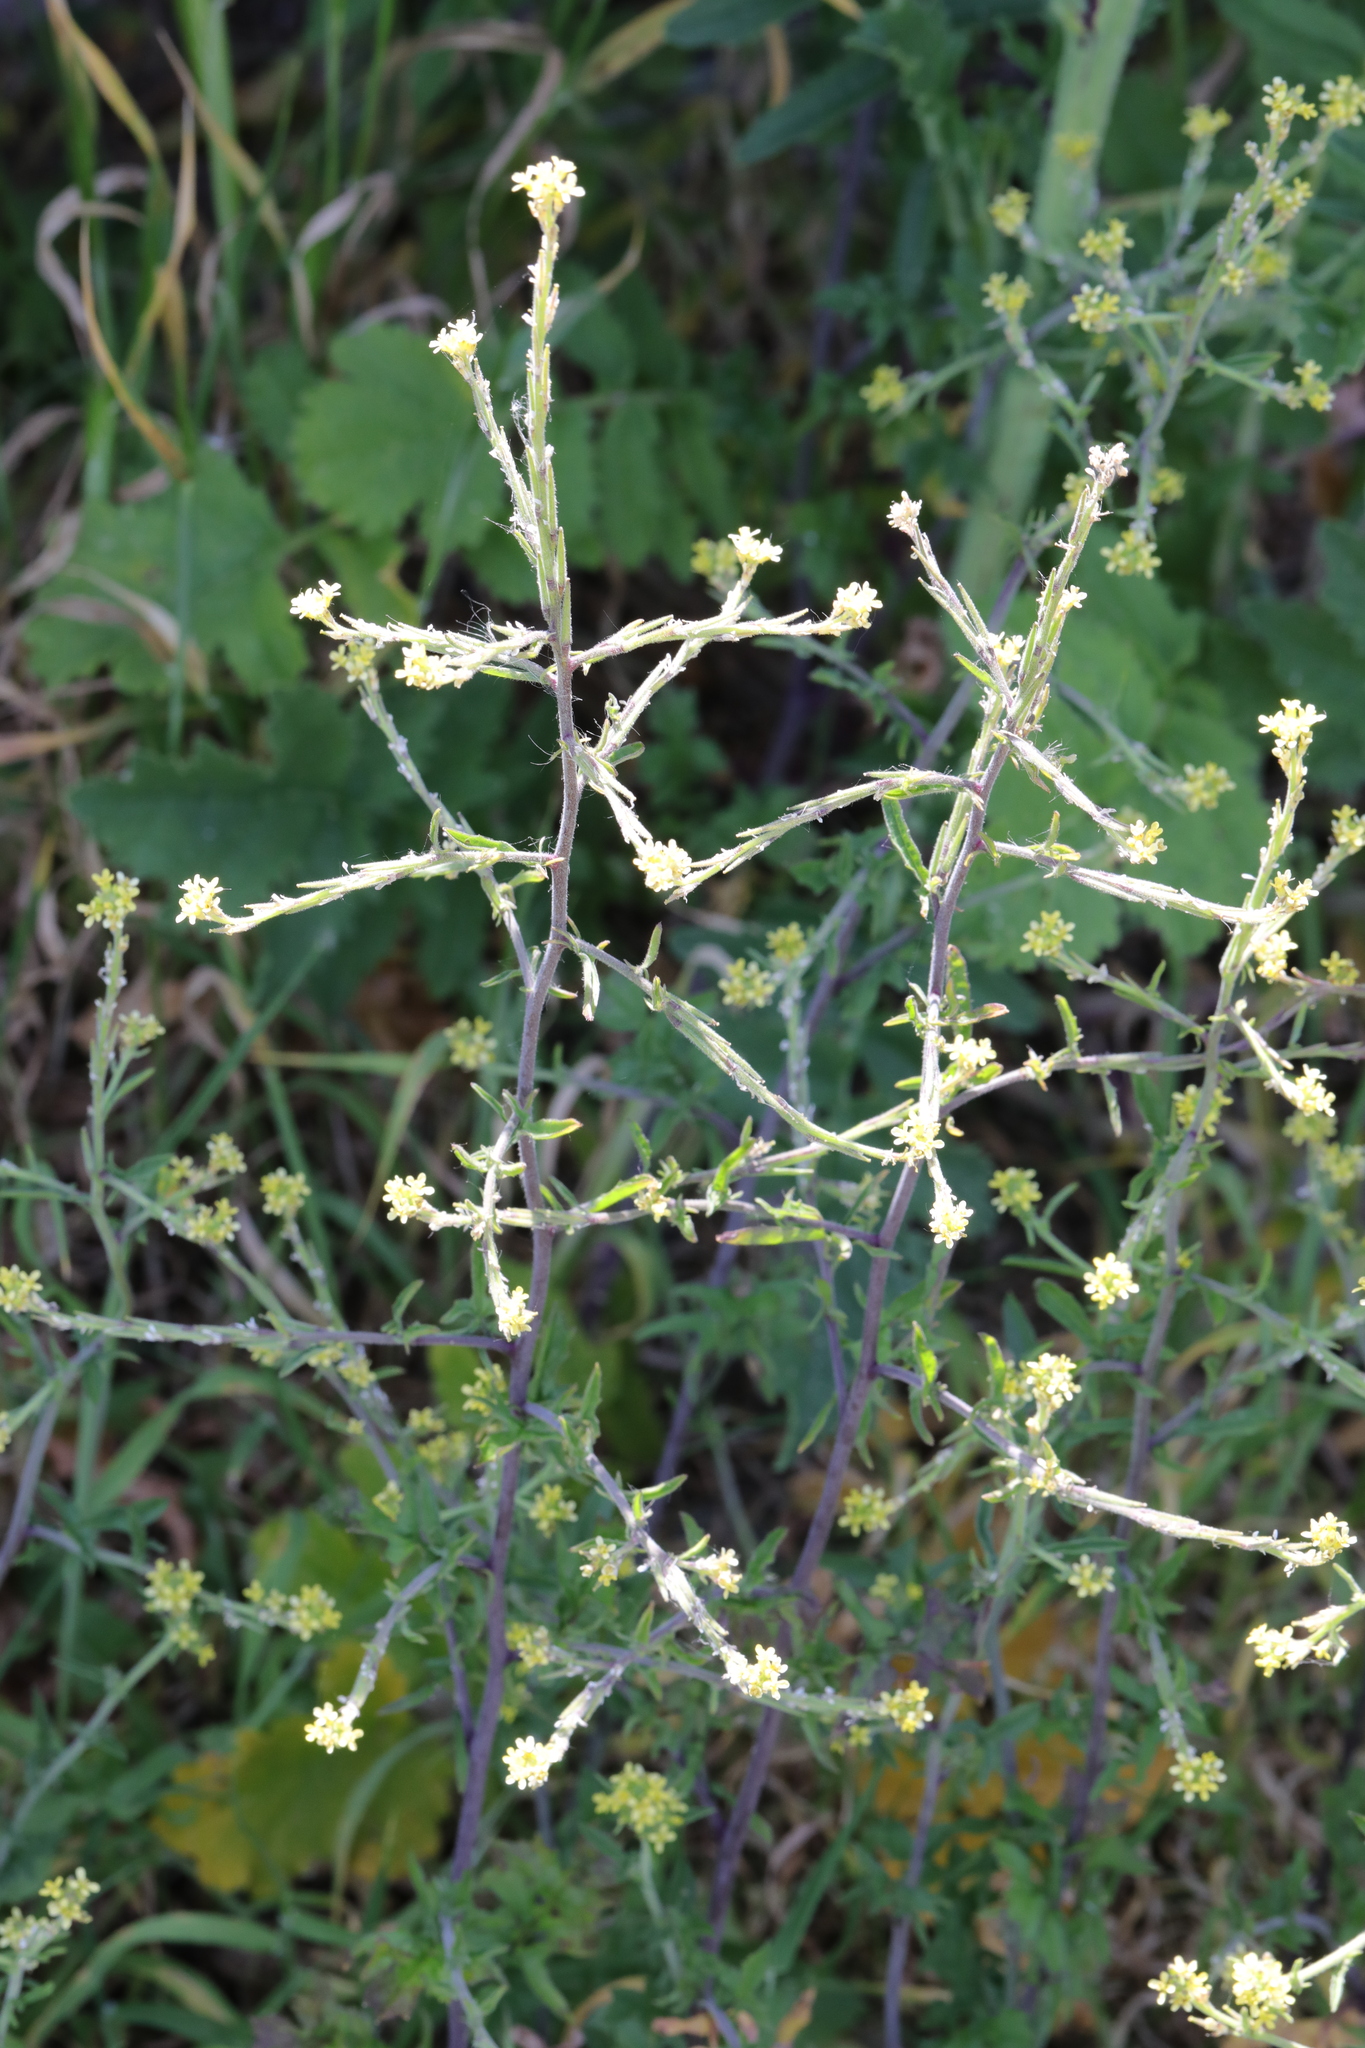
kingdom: Plantae
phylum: Tracheophyta
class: Magnoliopsida
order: Brassicales
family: Brassicaceae
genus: Sisymbrium
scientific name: Sisymbrium officinale
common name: Hedge mustard
